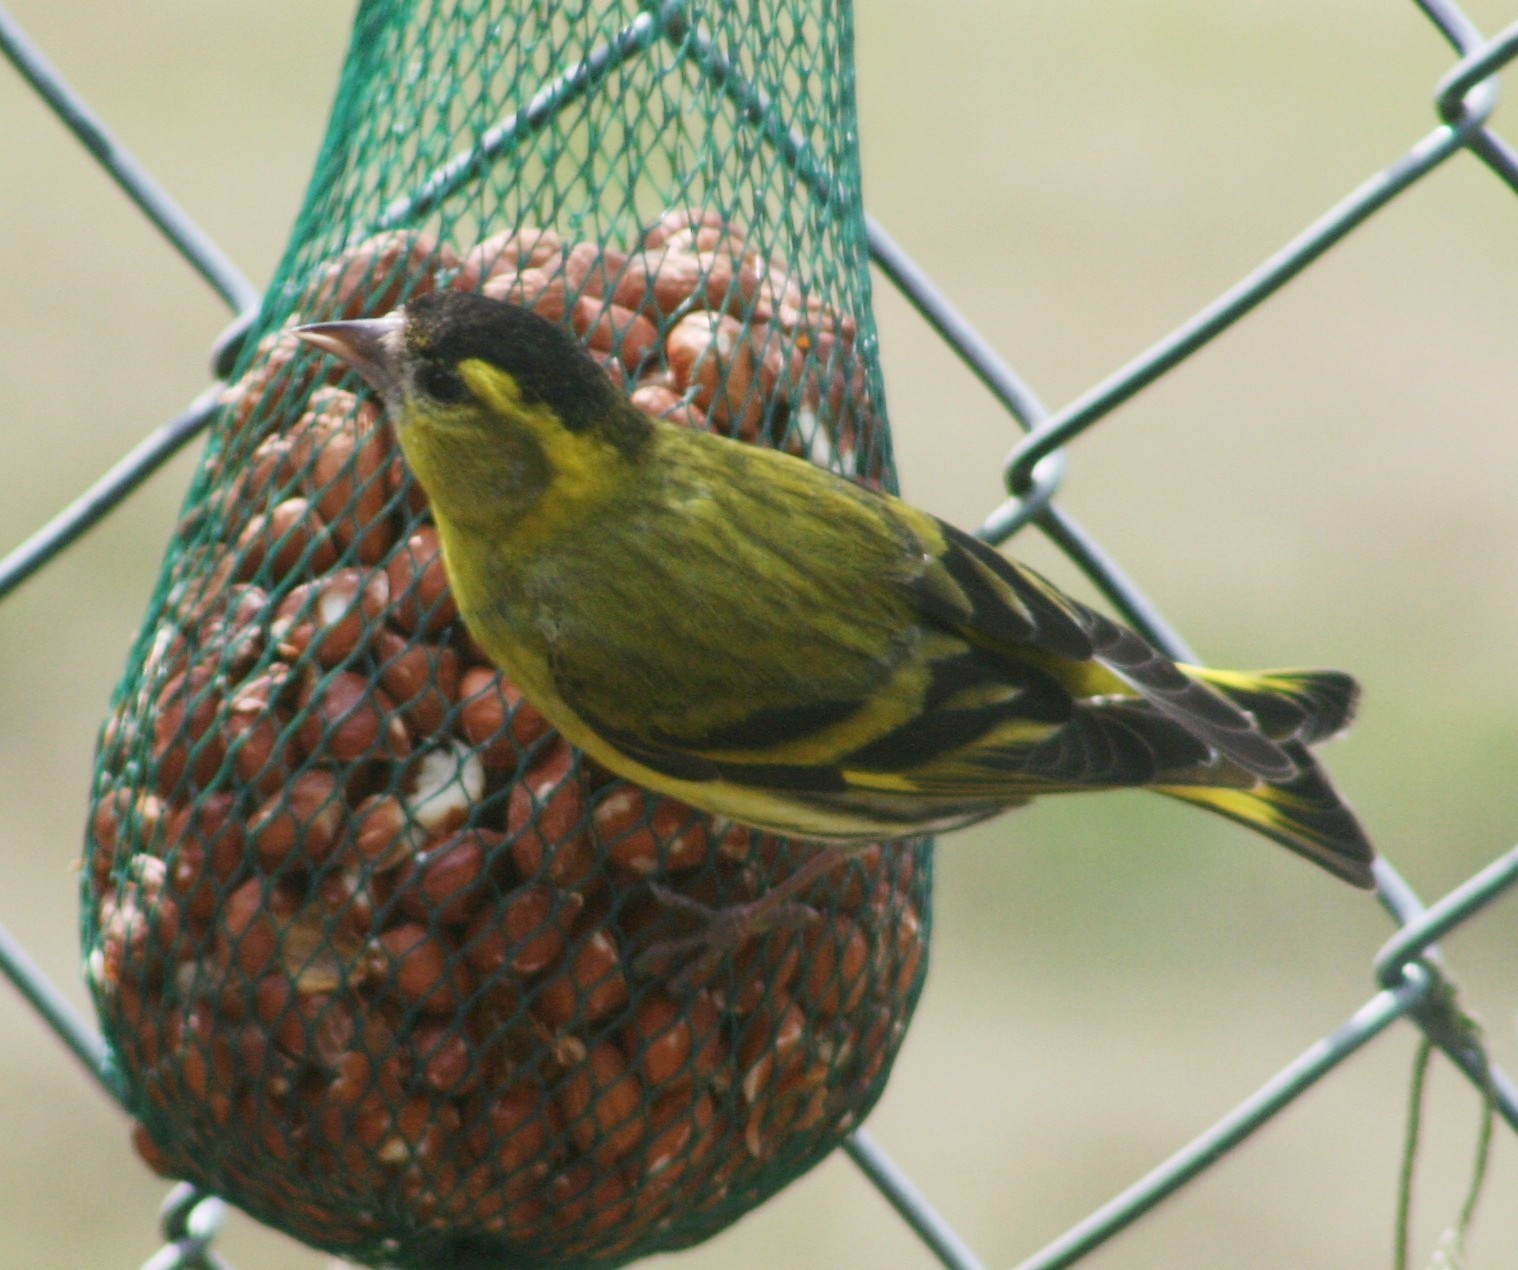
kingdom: Animalia
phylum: Chordata
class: Aves
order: Passeriformes
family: Fringillidae
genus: Spinus
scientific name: Spinus spinus
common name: Eurasian siskin
